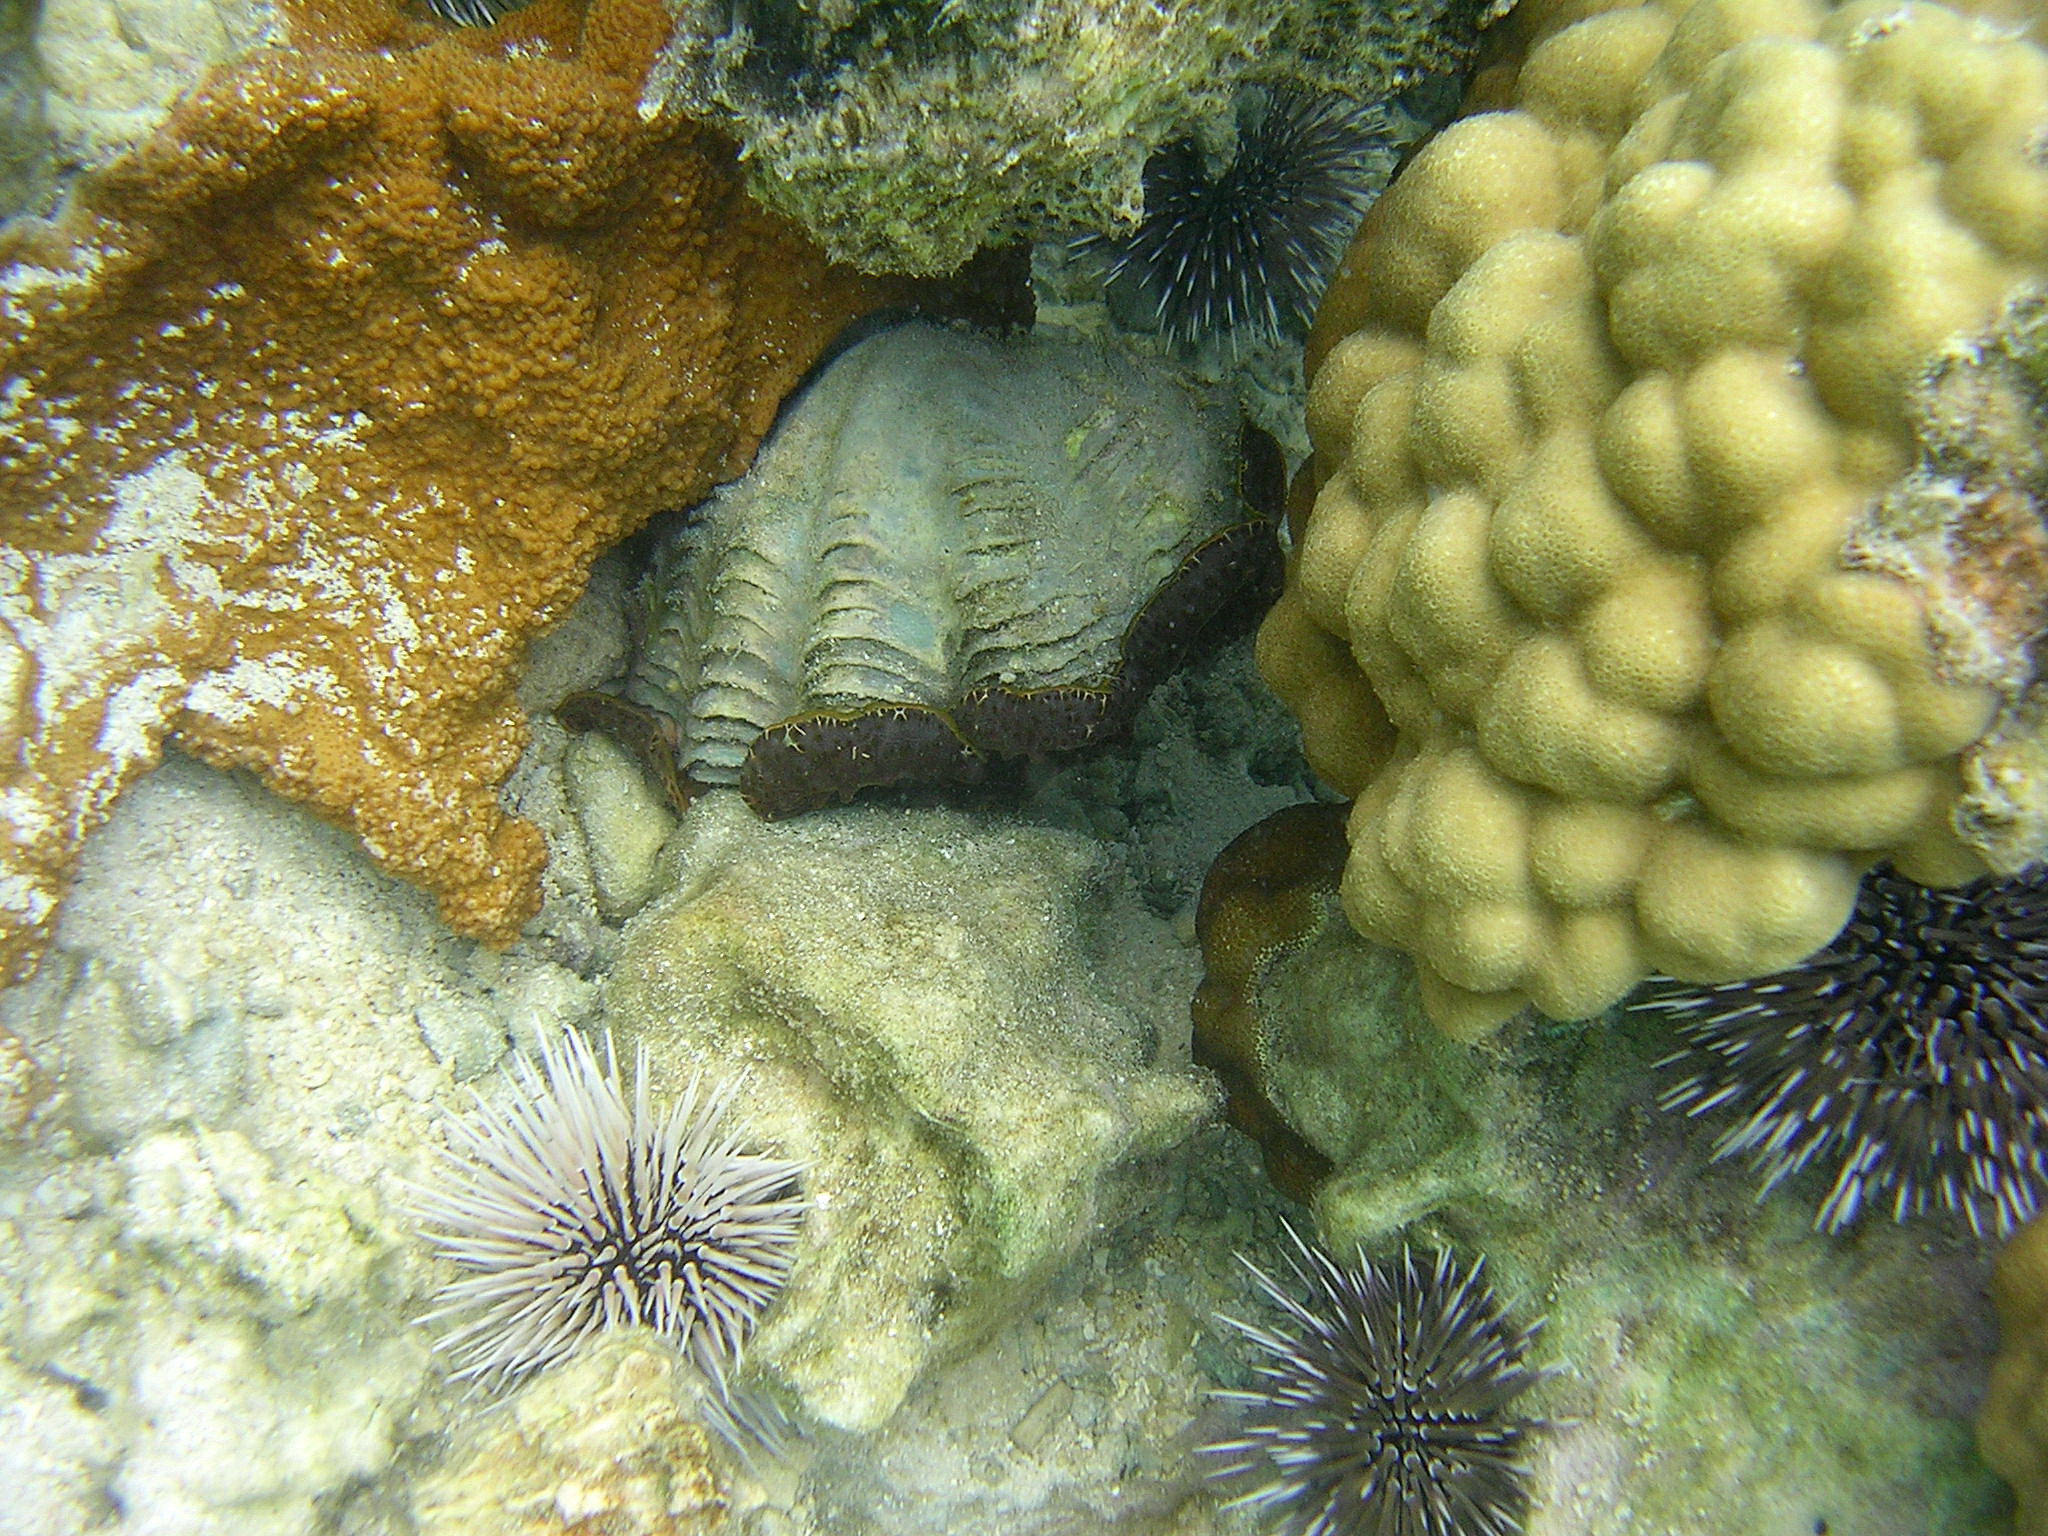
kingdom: Animalia
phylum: Mollusca
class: Bivalvia
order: Cardiida
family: Cardiidae
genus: Tridacna
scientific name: Tridacna maxima
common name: Small giant clam
